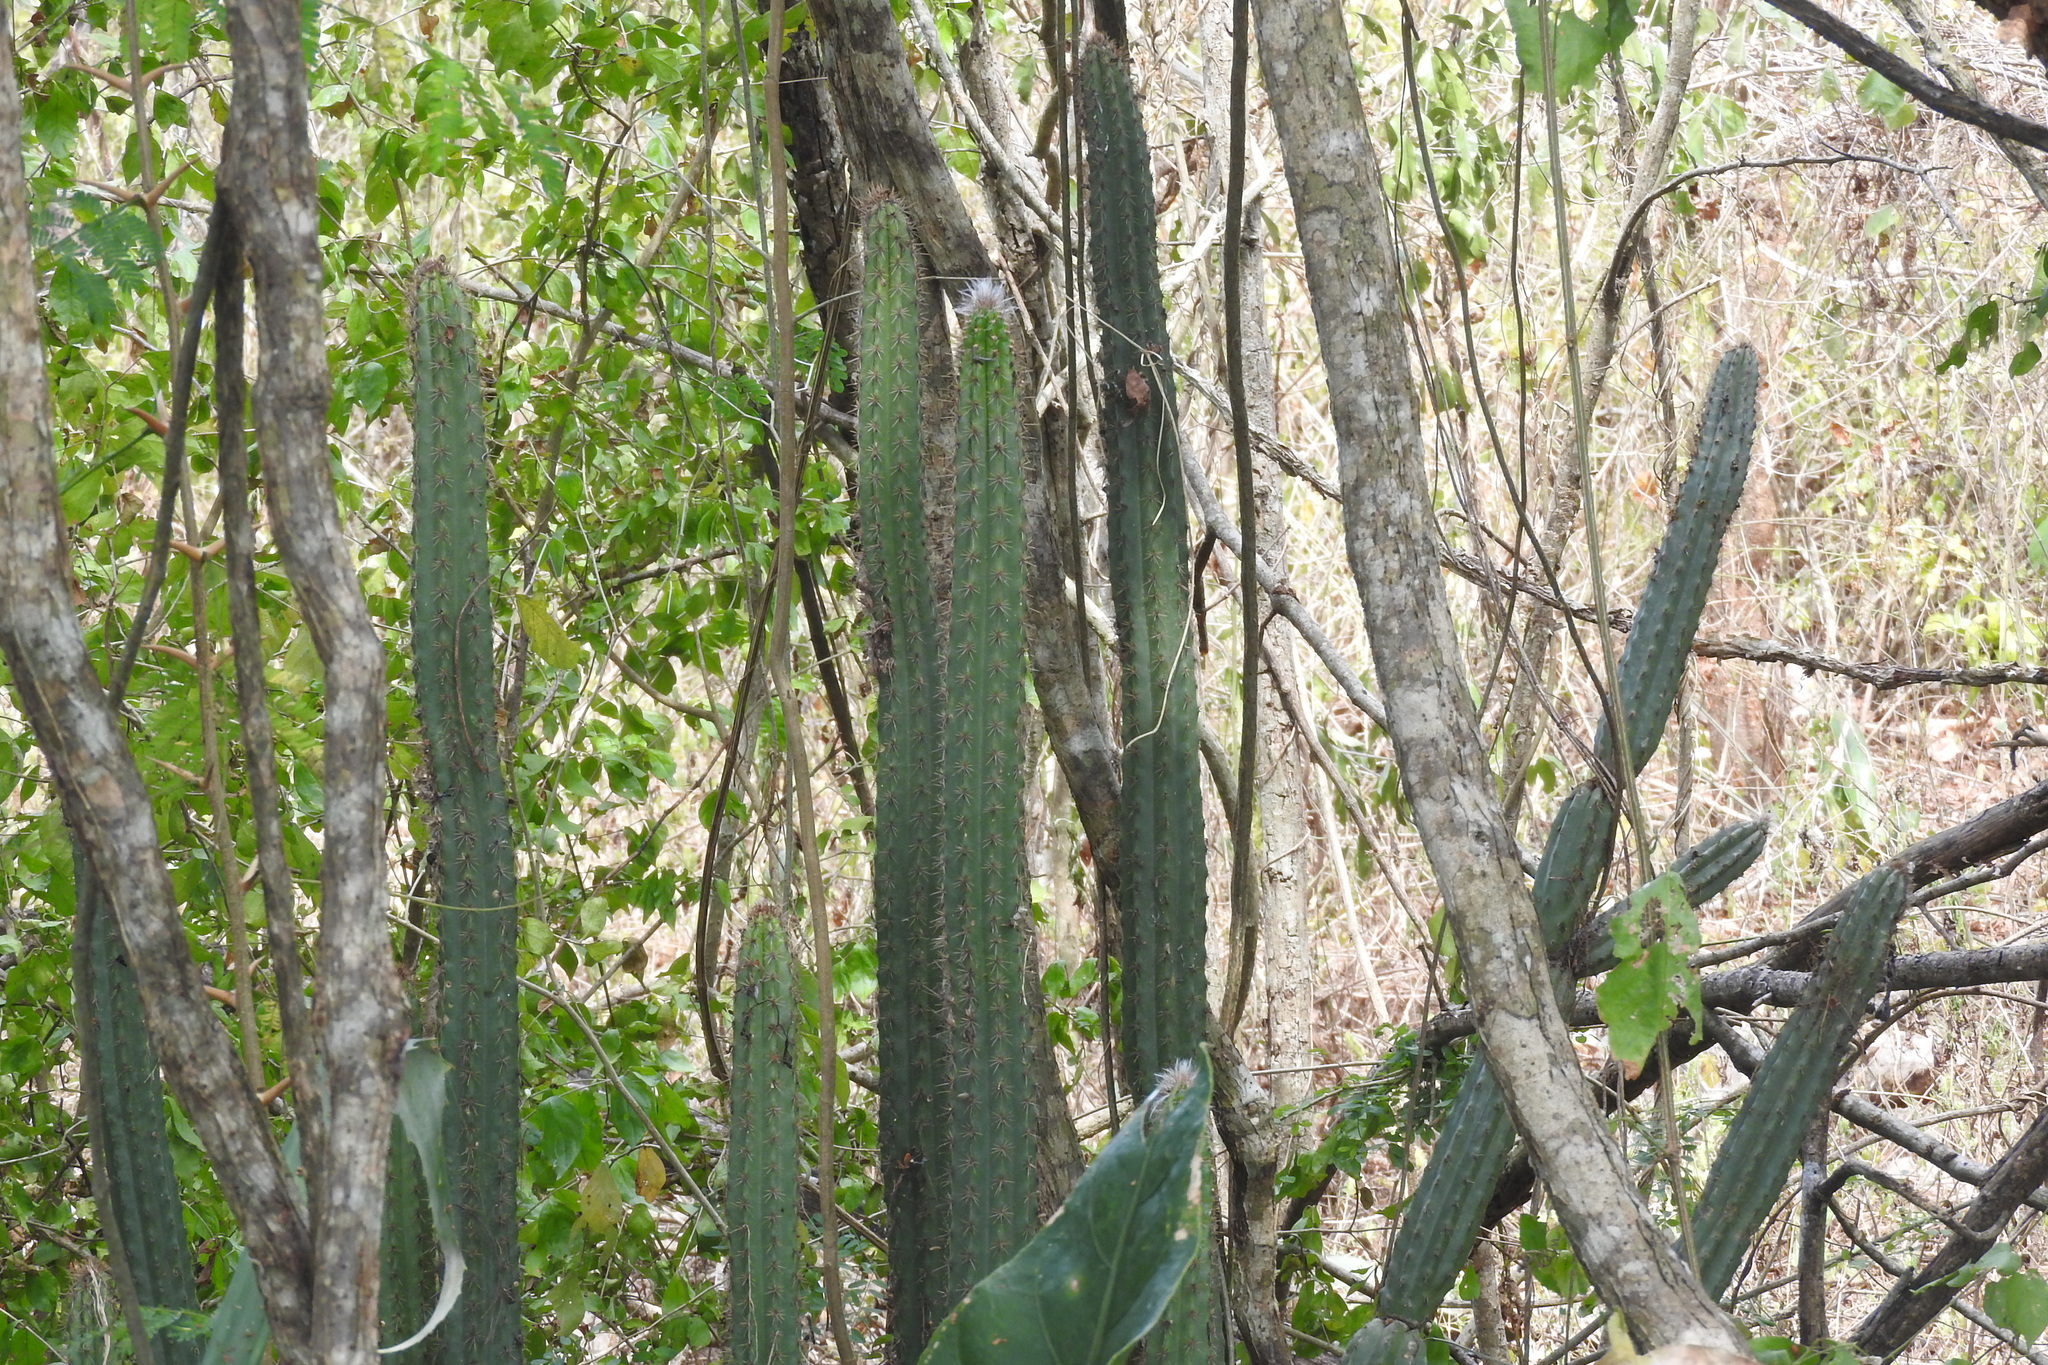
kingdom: Plantae
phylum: Tracheophyta
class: Magnoliopsida
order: Caryophyllales
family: Cactaceae
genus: Pilosocereus
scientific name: Pilosocereus purpusii
